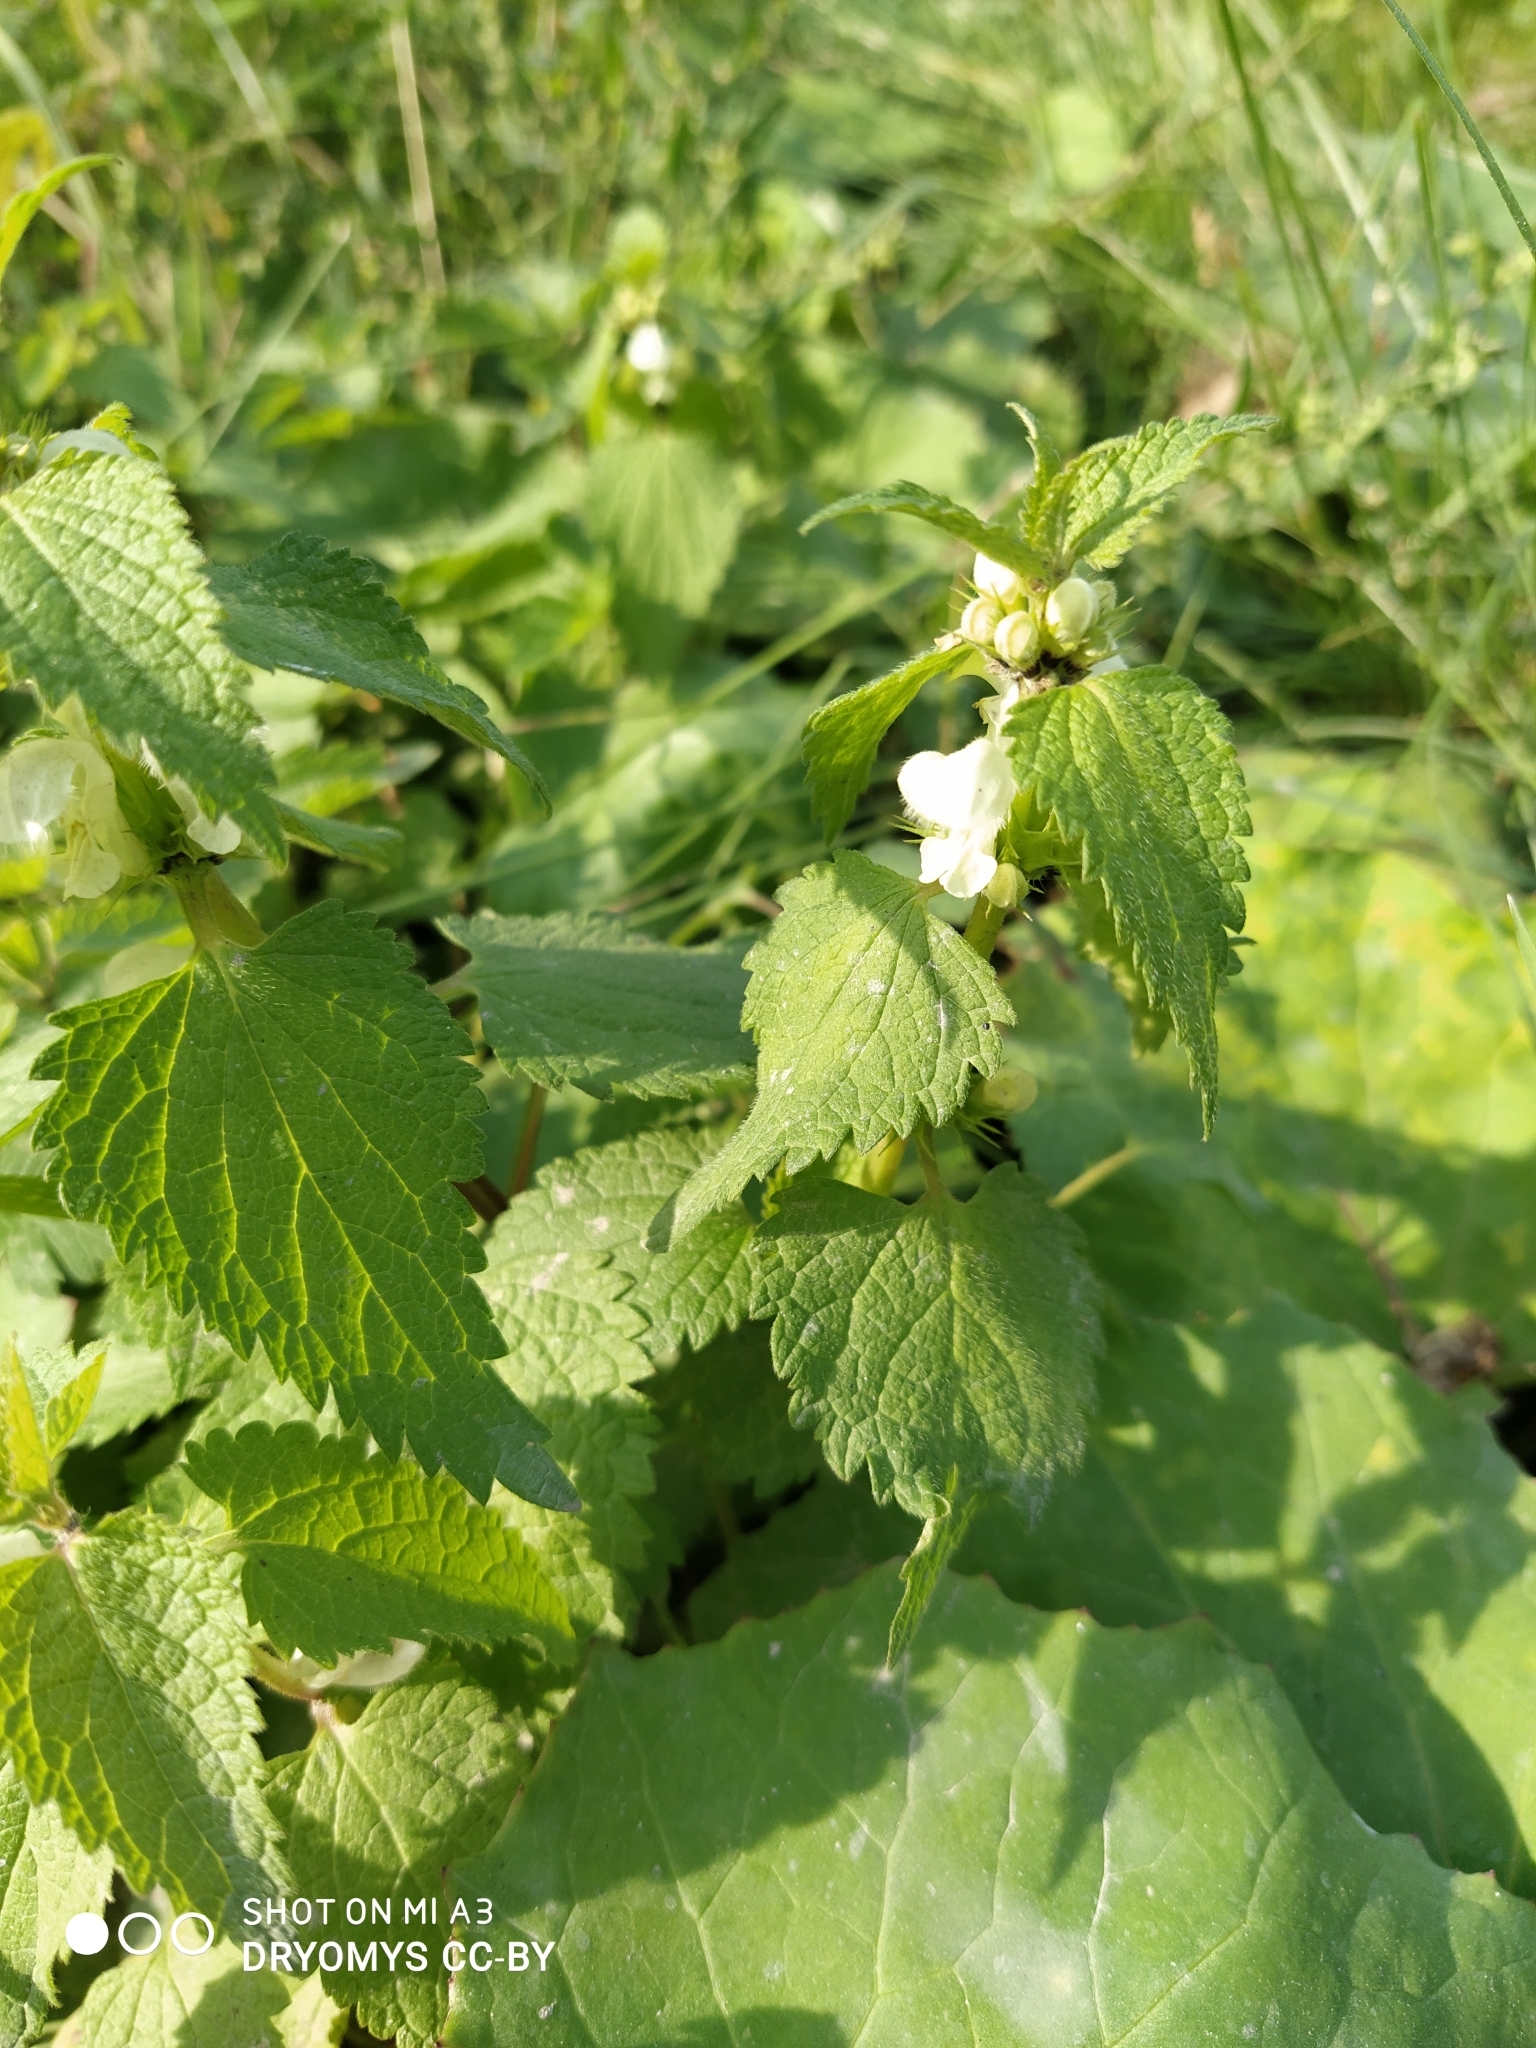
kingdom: Plantae
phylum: Tracheophyta
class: Magnoliopsida
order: Lamiales
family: Lamiaceae
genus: Lamium
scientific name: Lamium album
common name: White dead-nettle
